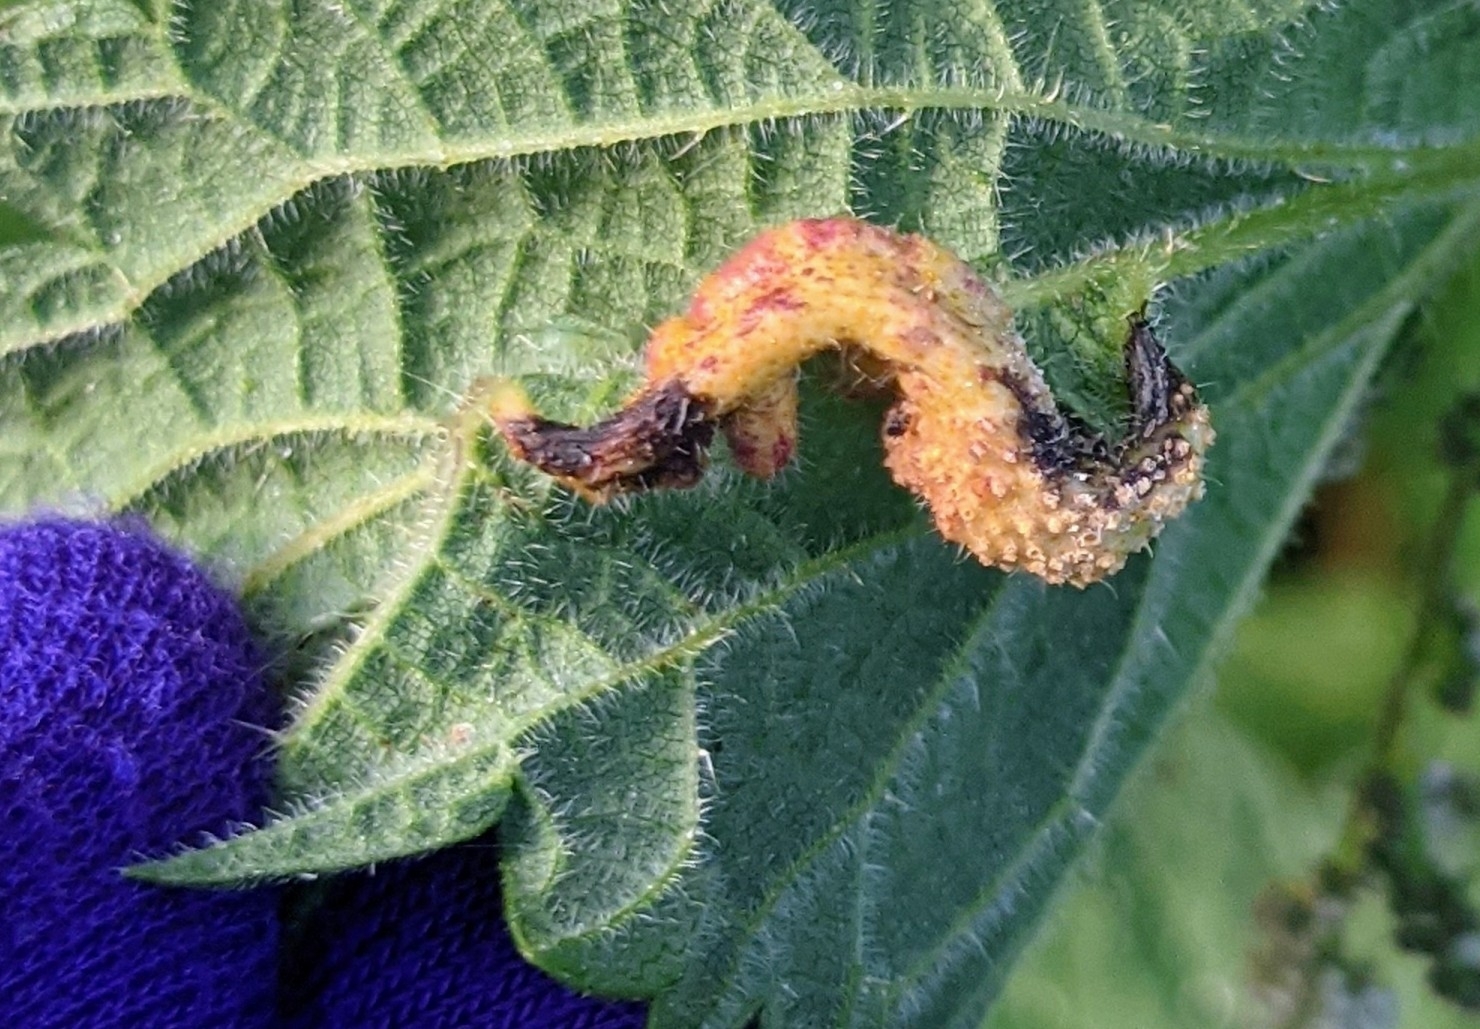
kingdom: Fungi
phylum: Basidiomycota
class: Pucciniomycetes
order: Pucciniales
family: Pucciniaceae
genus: Puccinia
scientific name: Puccinia urticata
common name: Nettle clustercup rust fungus
